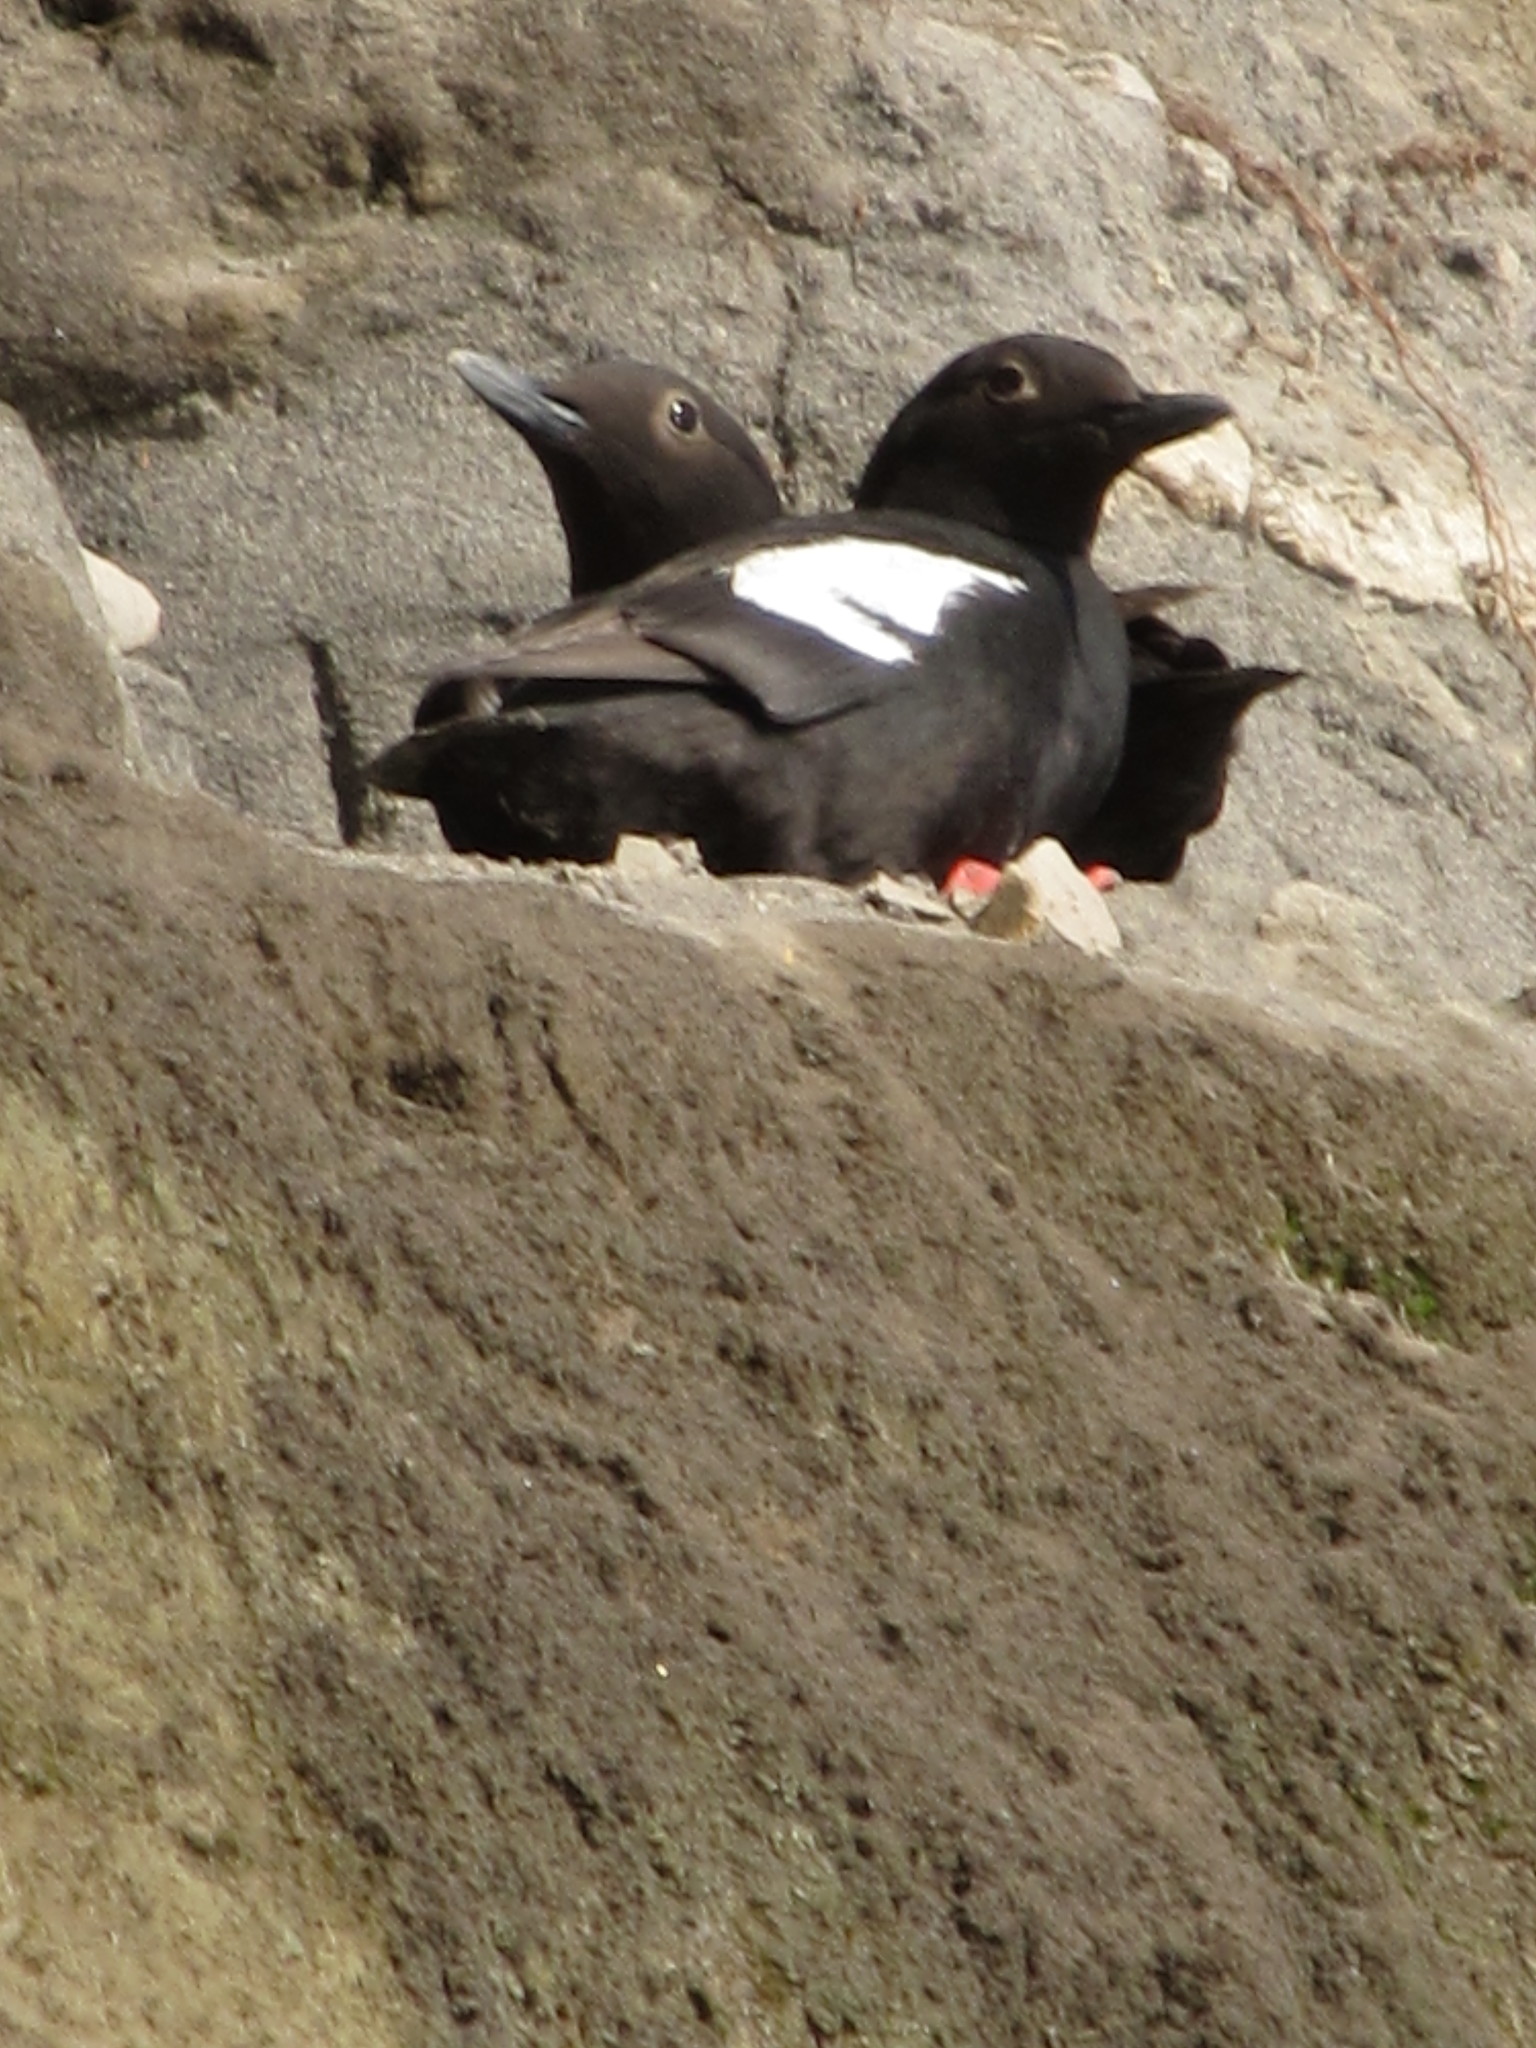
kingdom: Animalia
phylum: Chordata
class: Aves
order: Charadriiformes
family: Alcidae
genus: Cepphus
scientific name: Cepphus columba
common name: Pigeon guillemot
